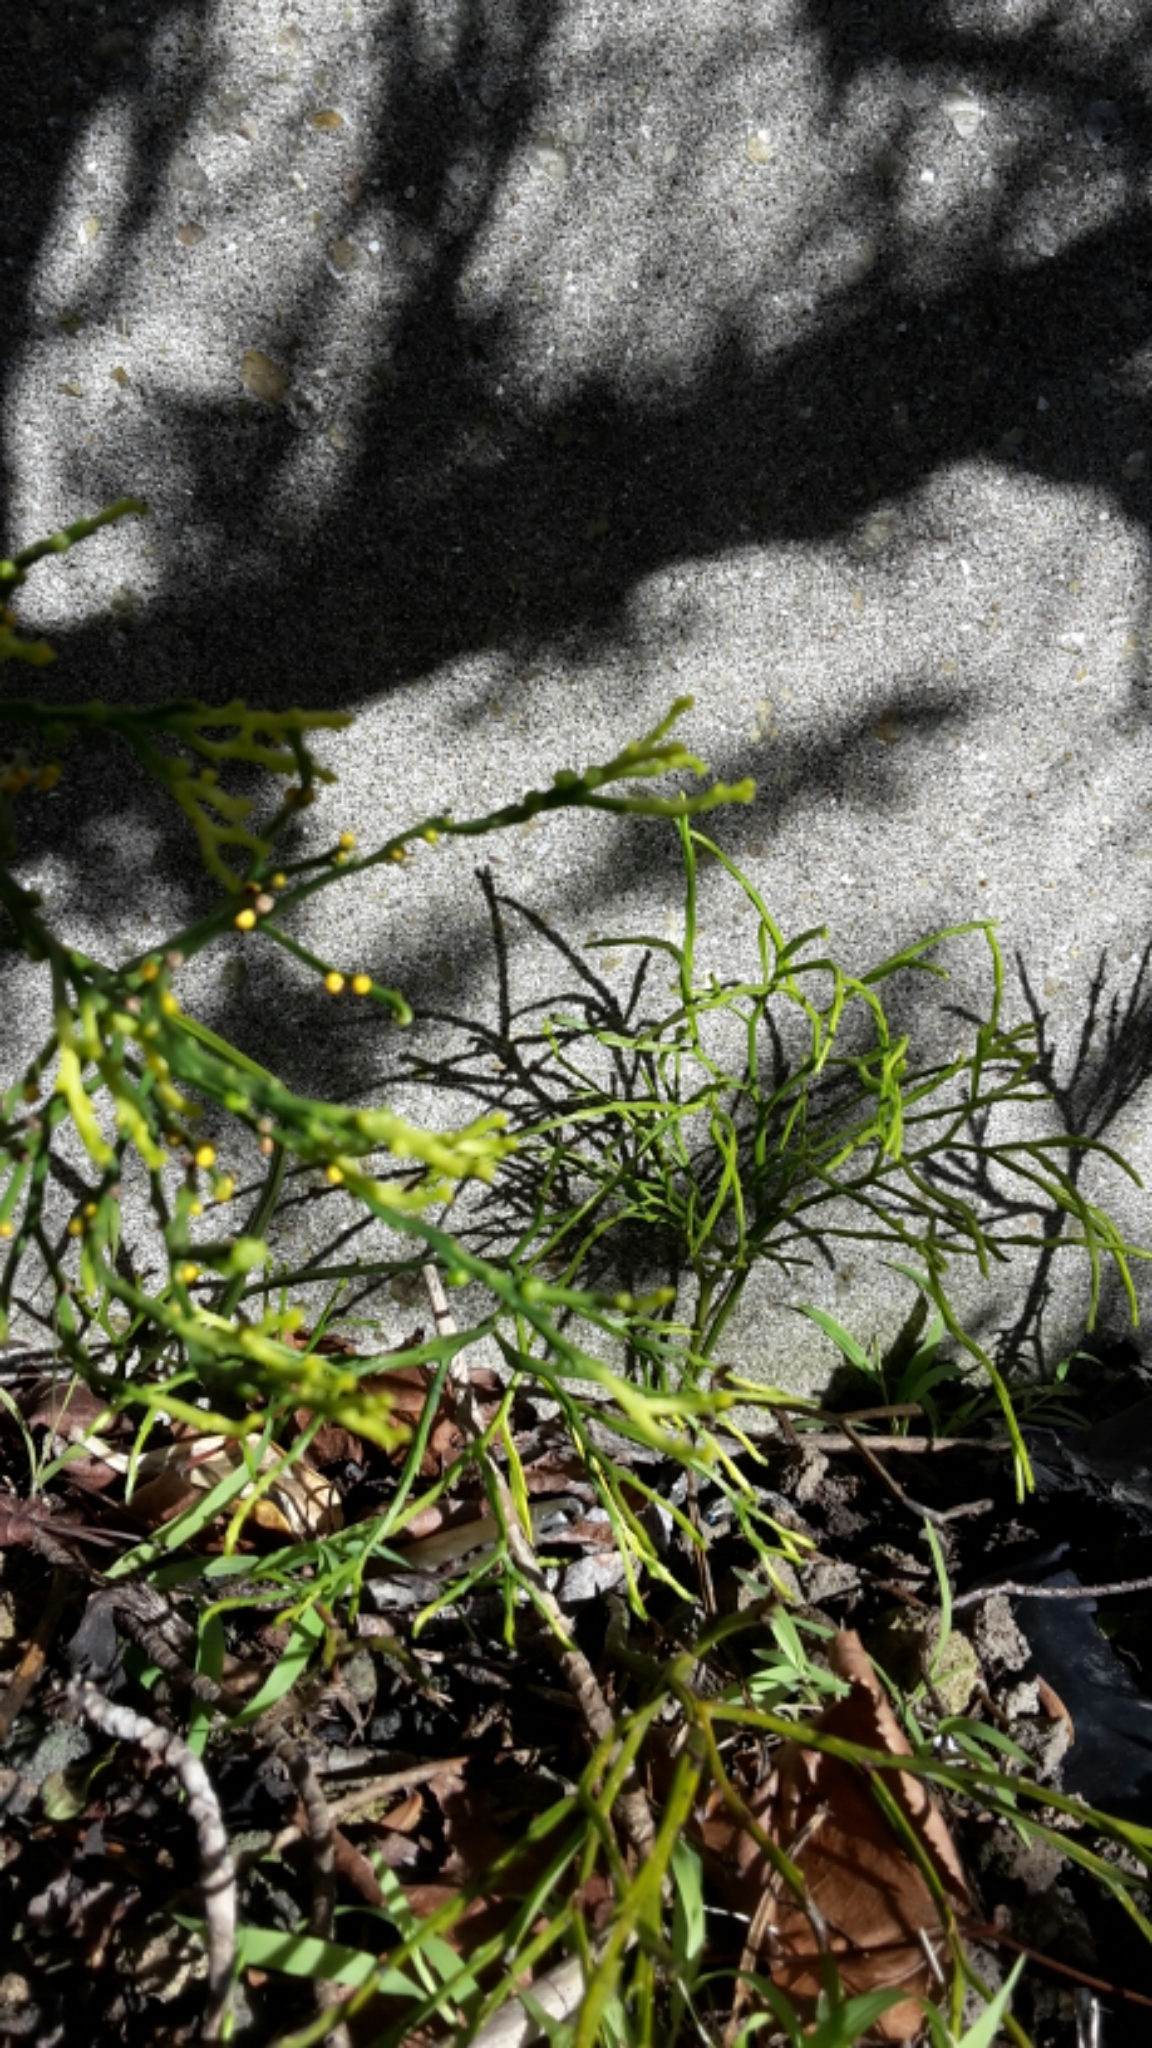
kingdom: Plantae
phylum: Tracheophyta
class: Polypodiopsida
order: Psilotales
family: Psilotaceae
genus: Psilotum
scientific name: Psilotum nudum
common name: Skeleton fork fern
